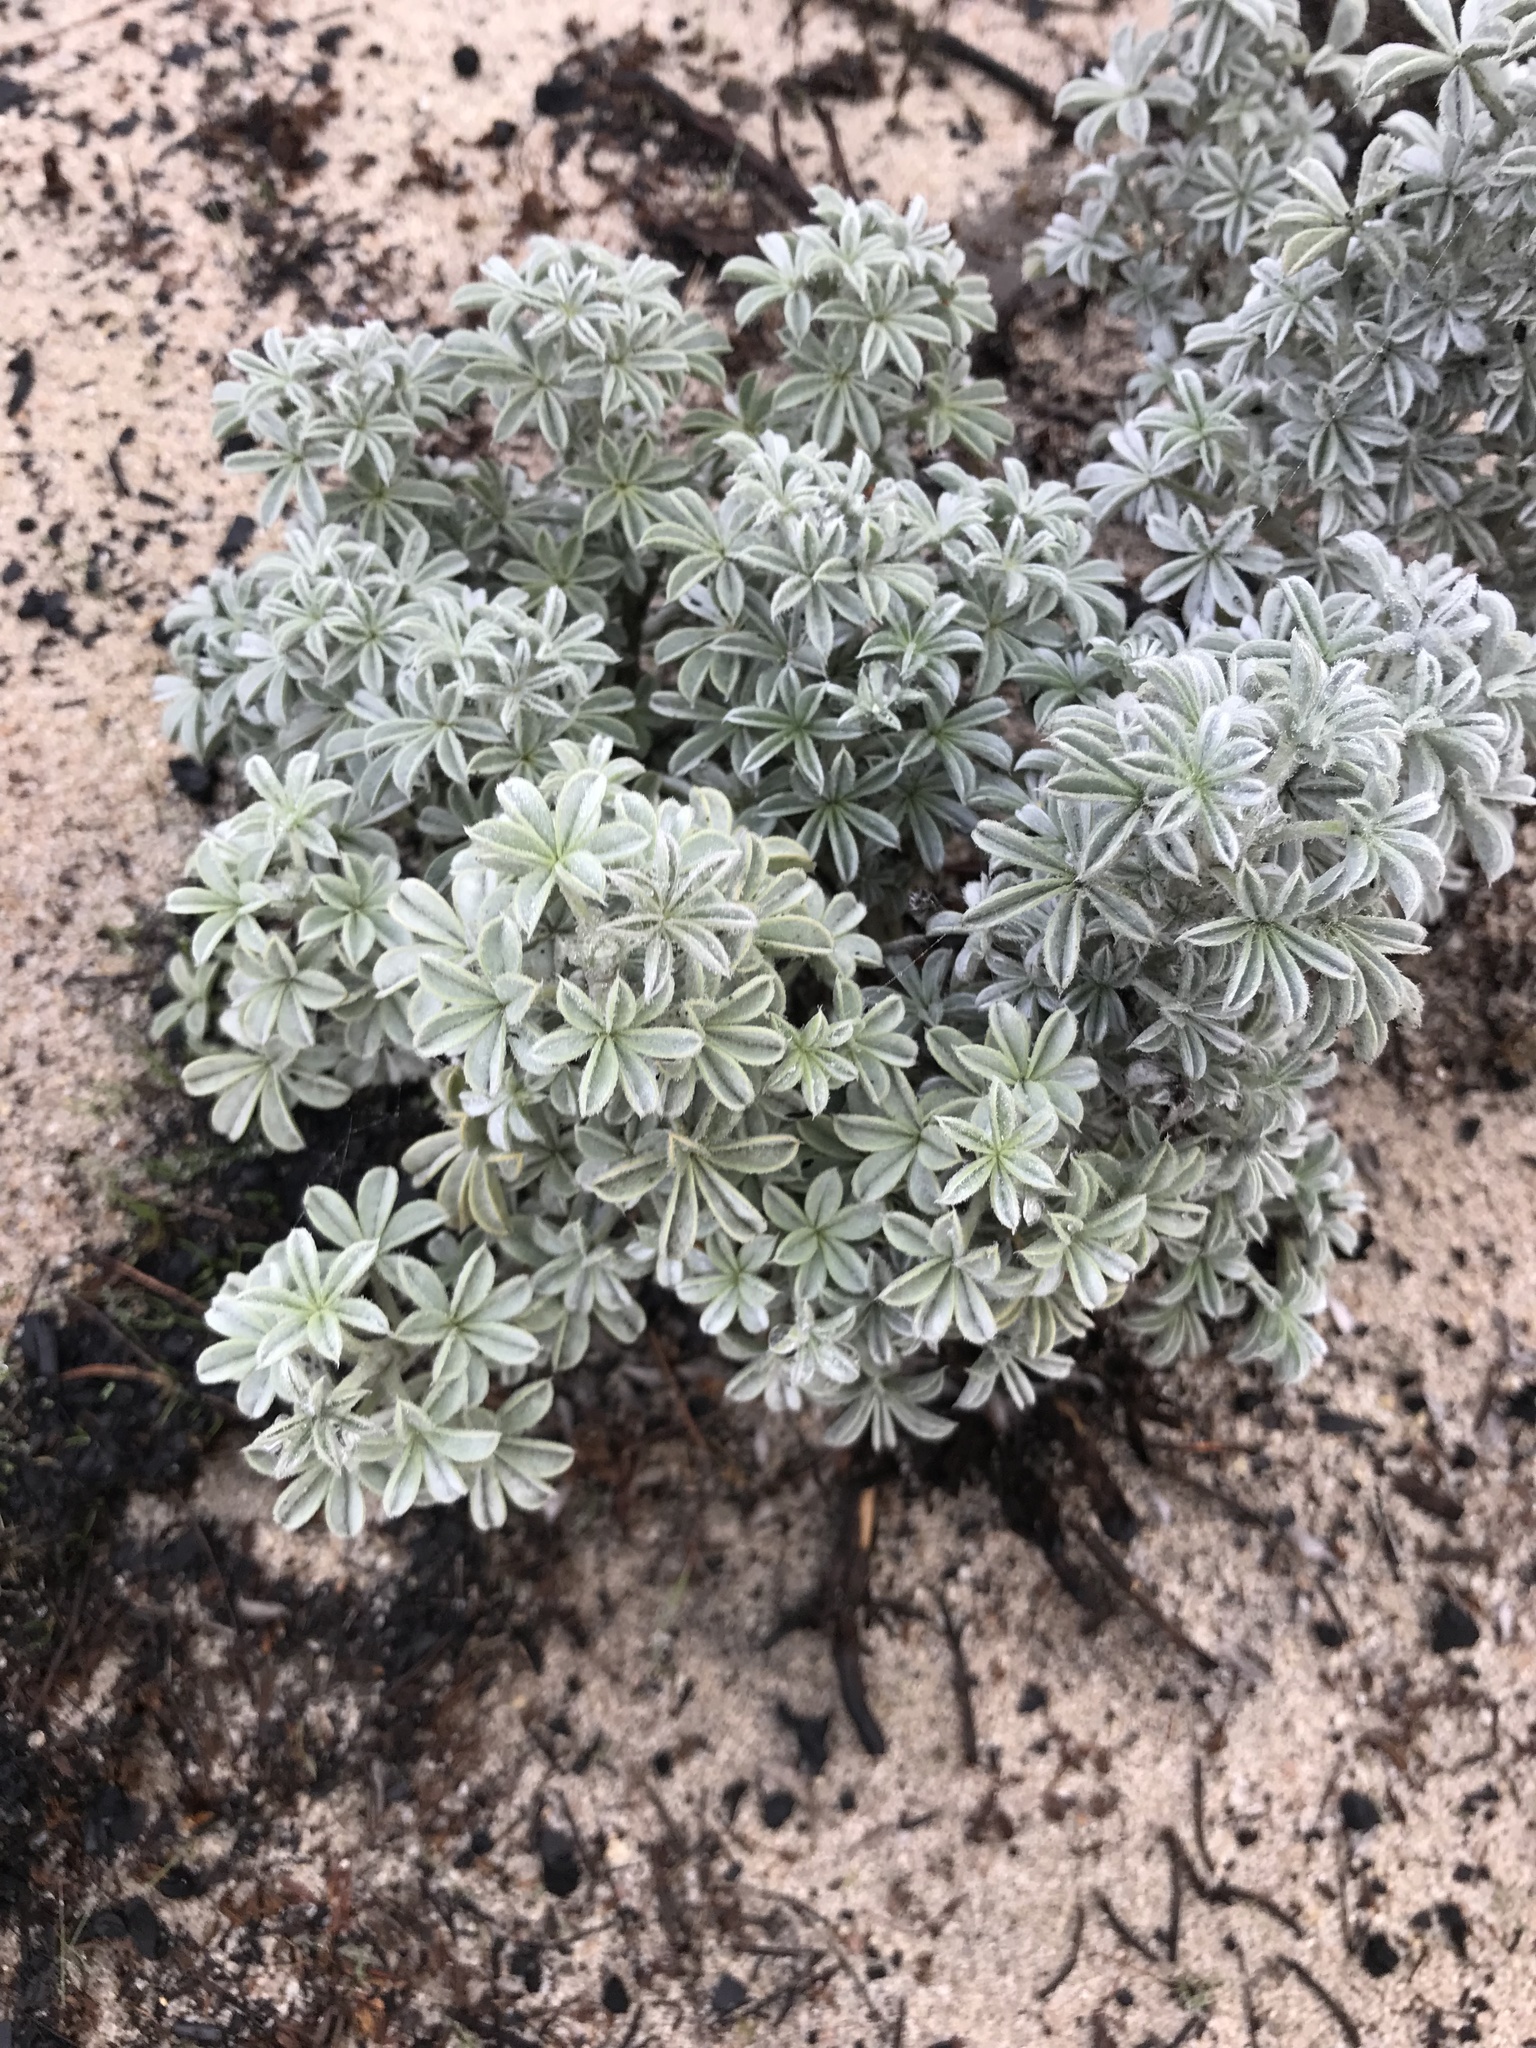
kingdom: Plantae
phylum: Tracheophyta
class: Magnoliopsida
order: Fabales
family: Fabaceae
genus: Lupinus
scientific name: Lupinus albifrons
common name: Foothill lupine
